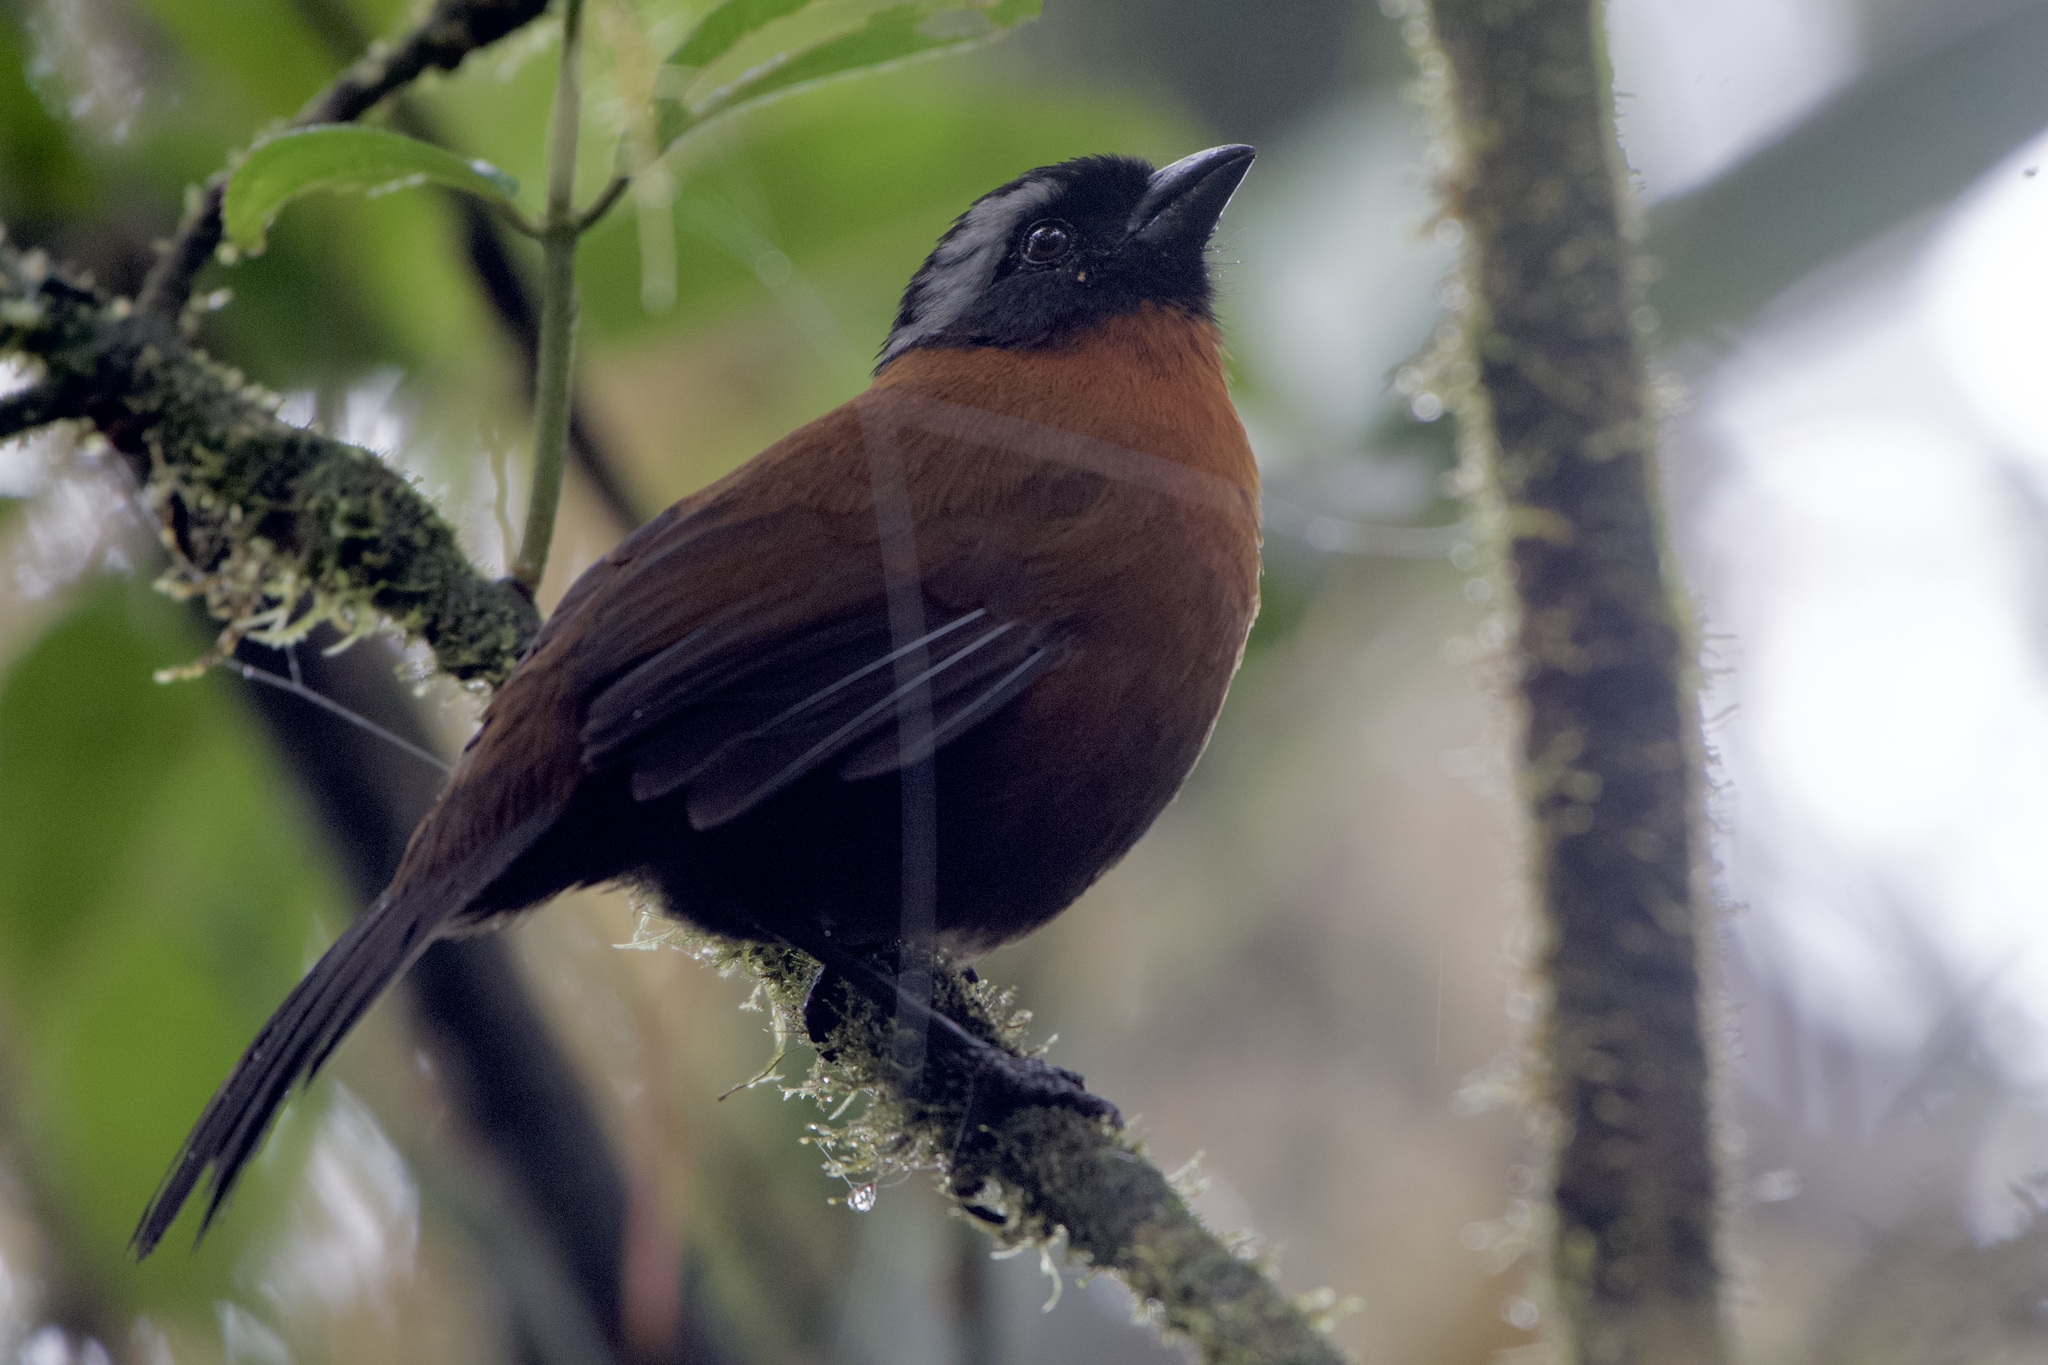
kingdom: Animalia
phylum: Chordata
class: Aves
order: Passeriformes
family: Passerellidae
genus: Oreothraupis
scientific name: Oreothraupis arremonops
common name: Tanager finch
